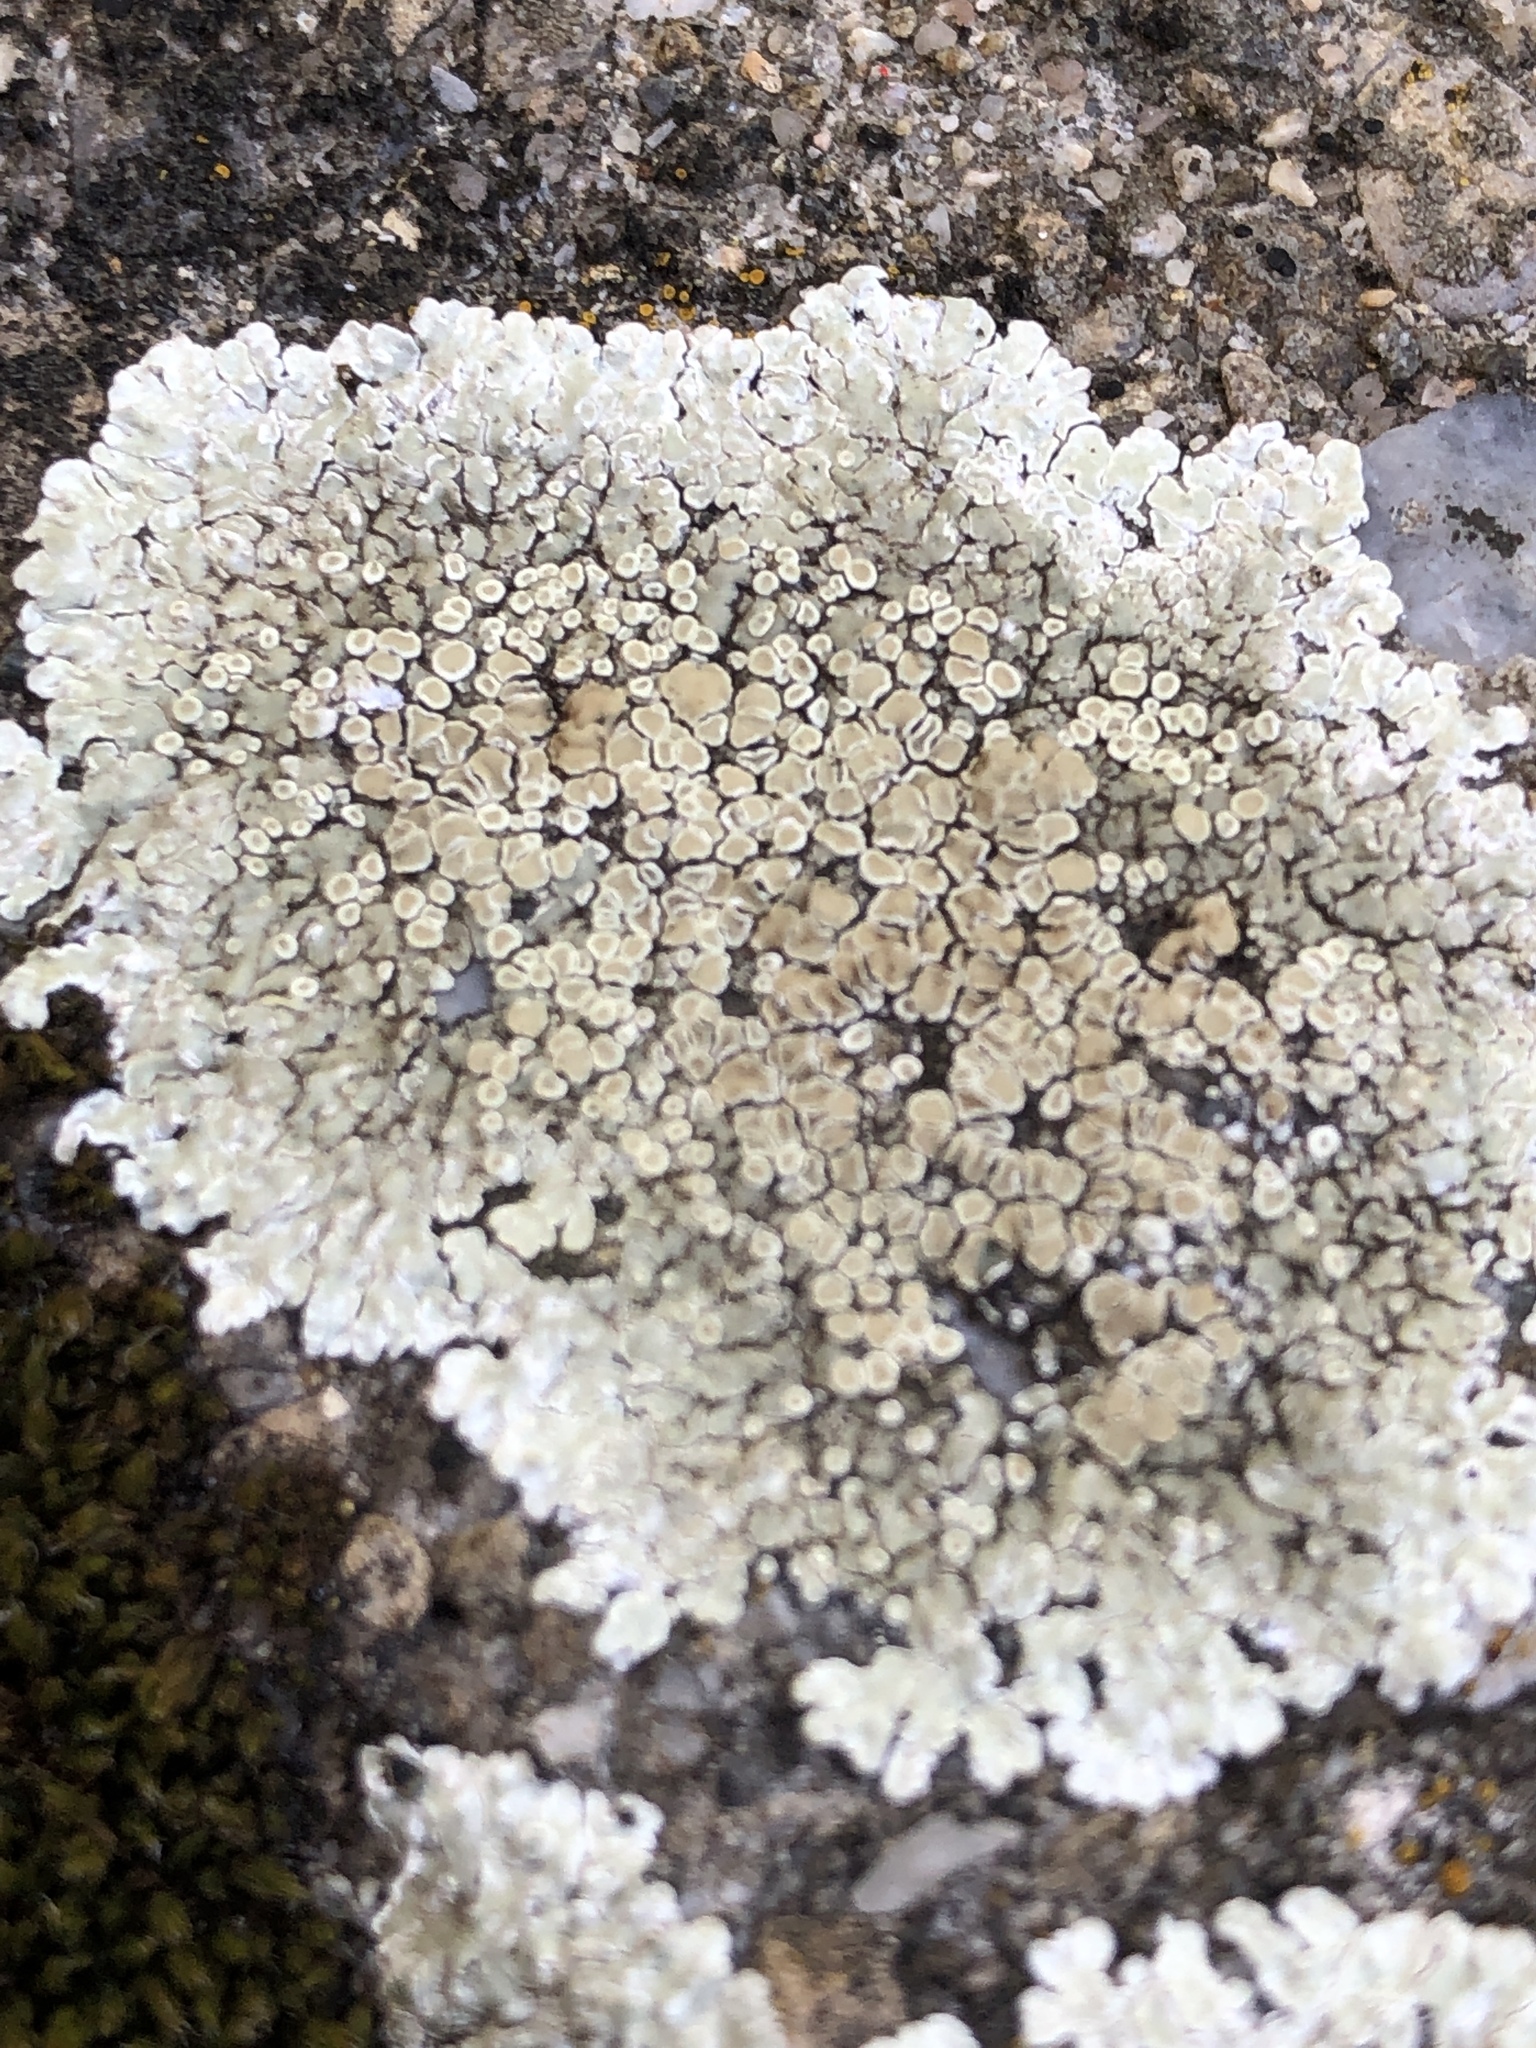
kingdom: Fungi
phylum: Ascomycota
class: Lecanoromycetes
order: Lecanorales
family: Lecanoraceae
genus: Protoparmeliopsis
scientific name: Protoparmeliopsis muralis
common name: Stonewall rim lichen
